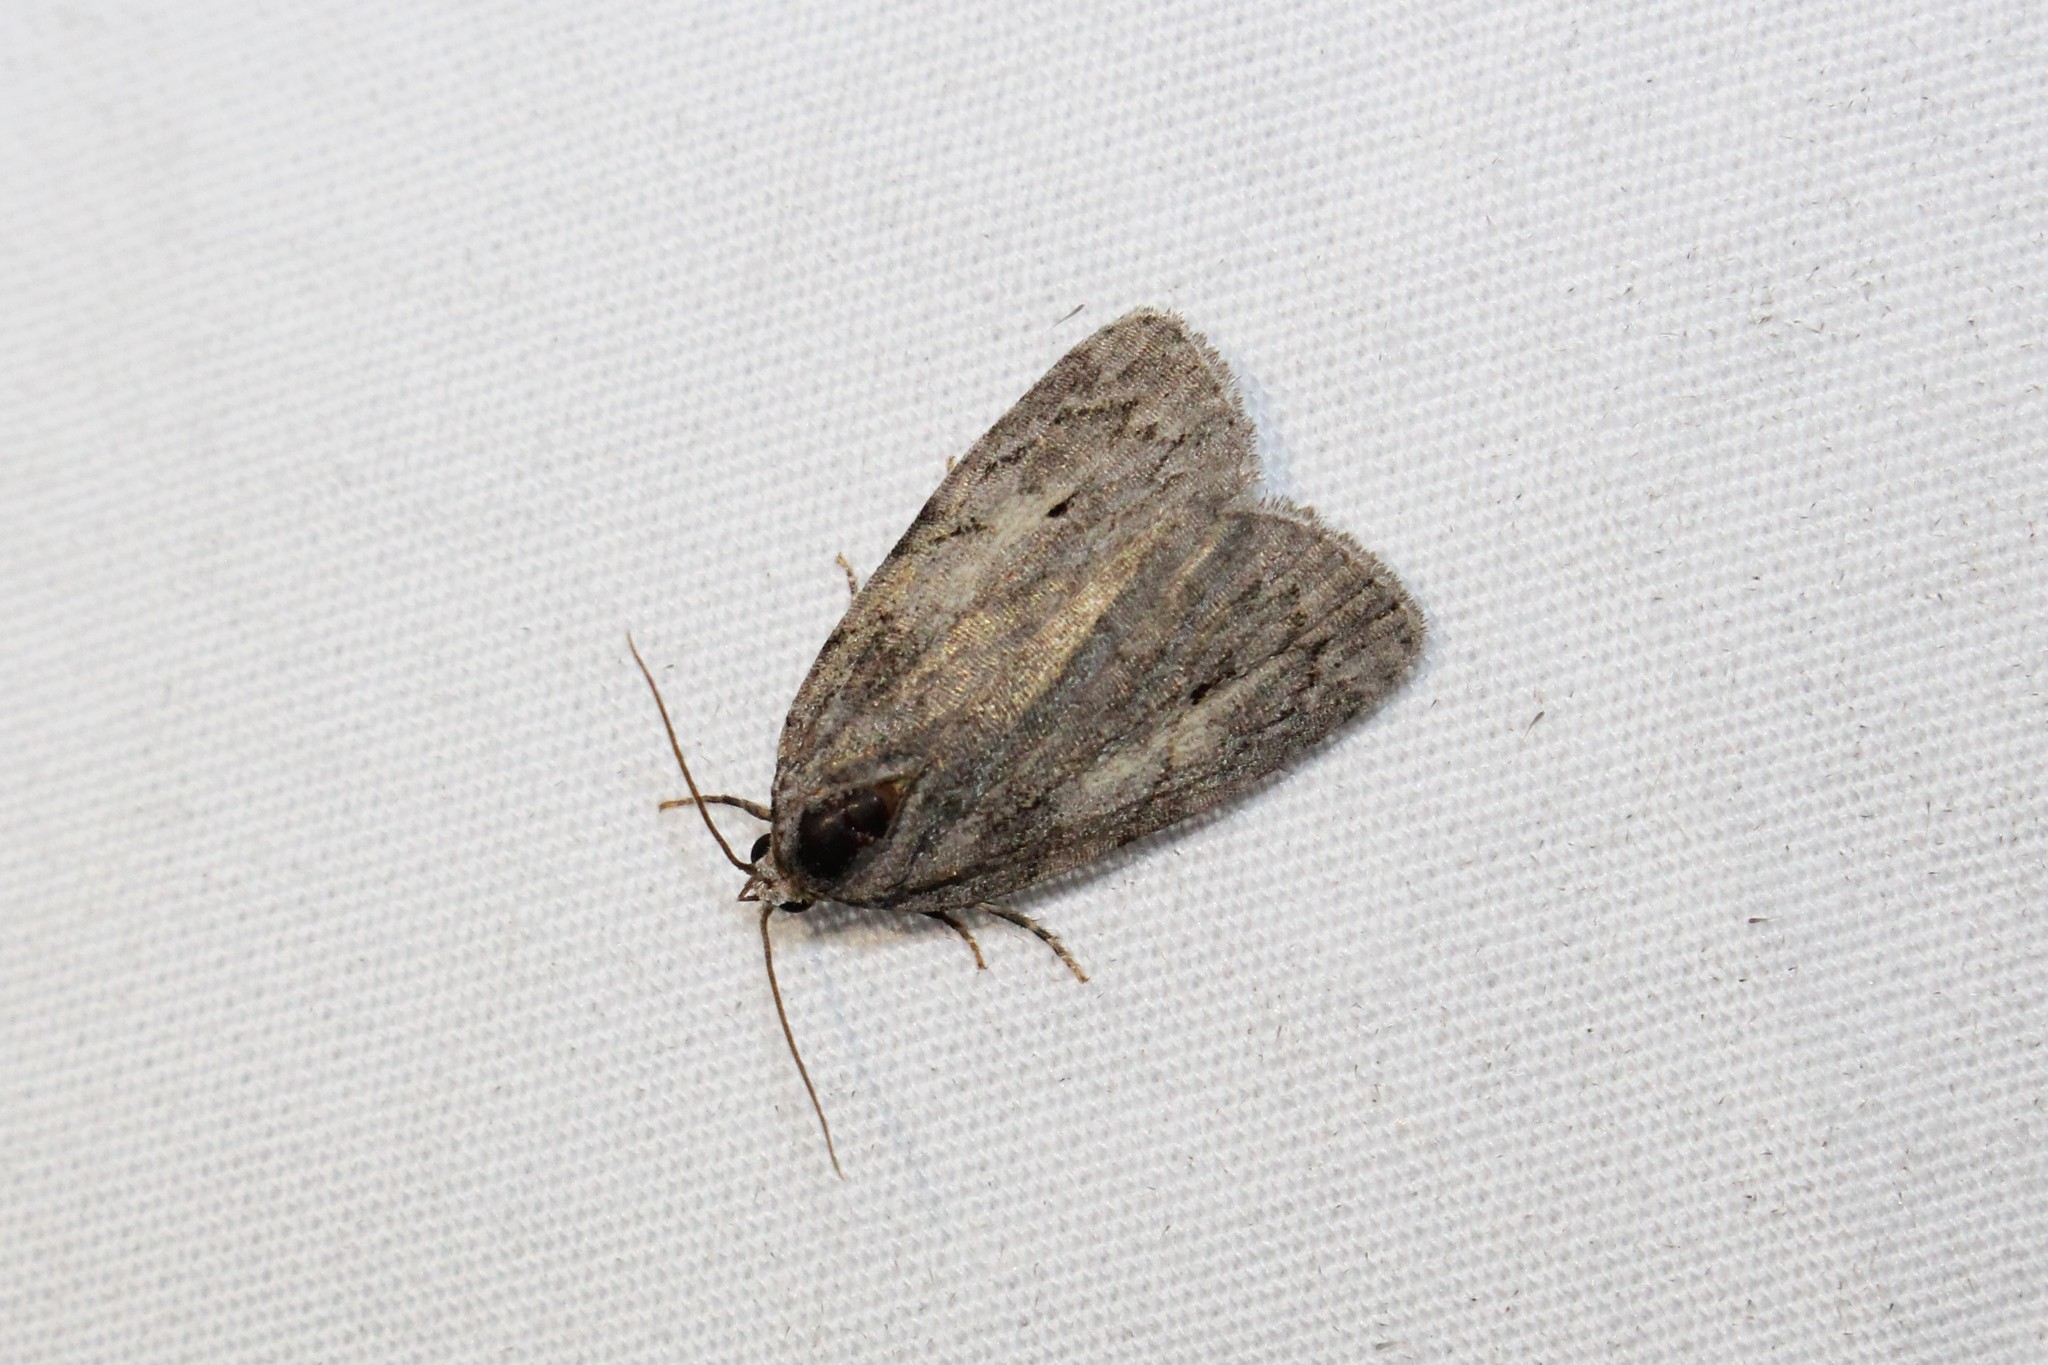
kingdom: Animalia
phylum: Arthropoda
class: Insecta
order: Lepidoptera
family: Noctuidae
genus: Balsa
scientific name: Balsa labecula
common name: White-blotched balsa moth
